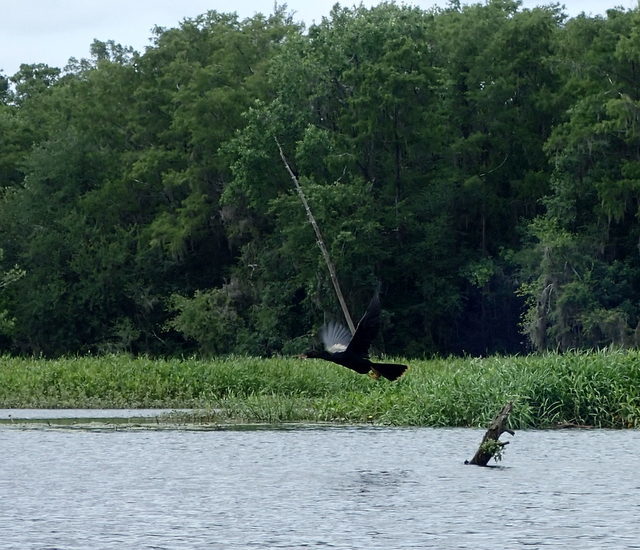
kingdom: Animalia
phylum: Chordata
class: Aves
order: Suliformes
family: Anhingidae
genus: Anhinga
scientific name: Anhinga anhinga
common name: Anhinga
